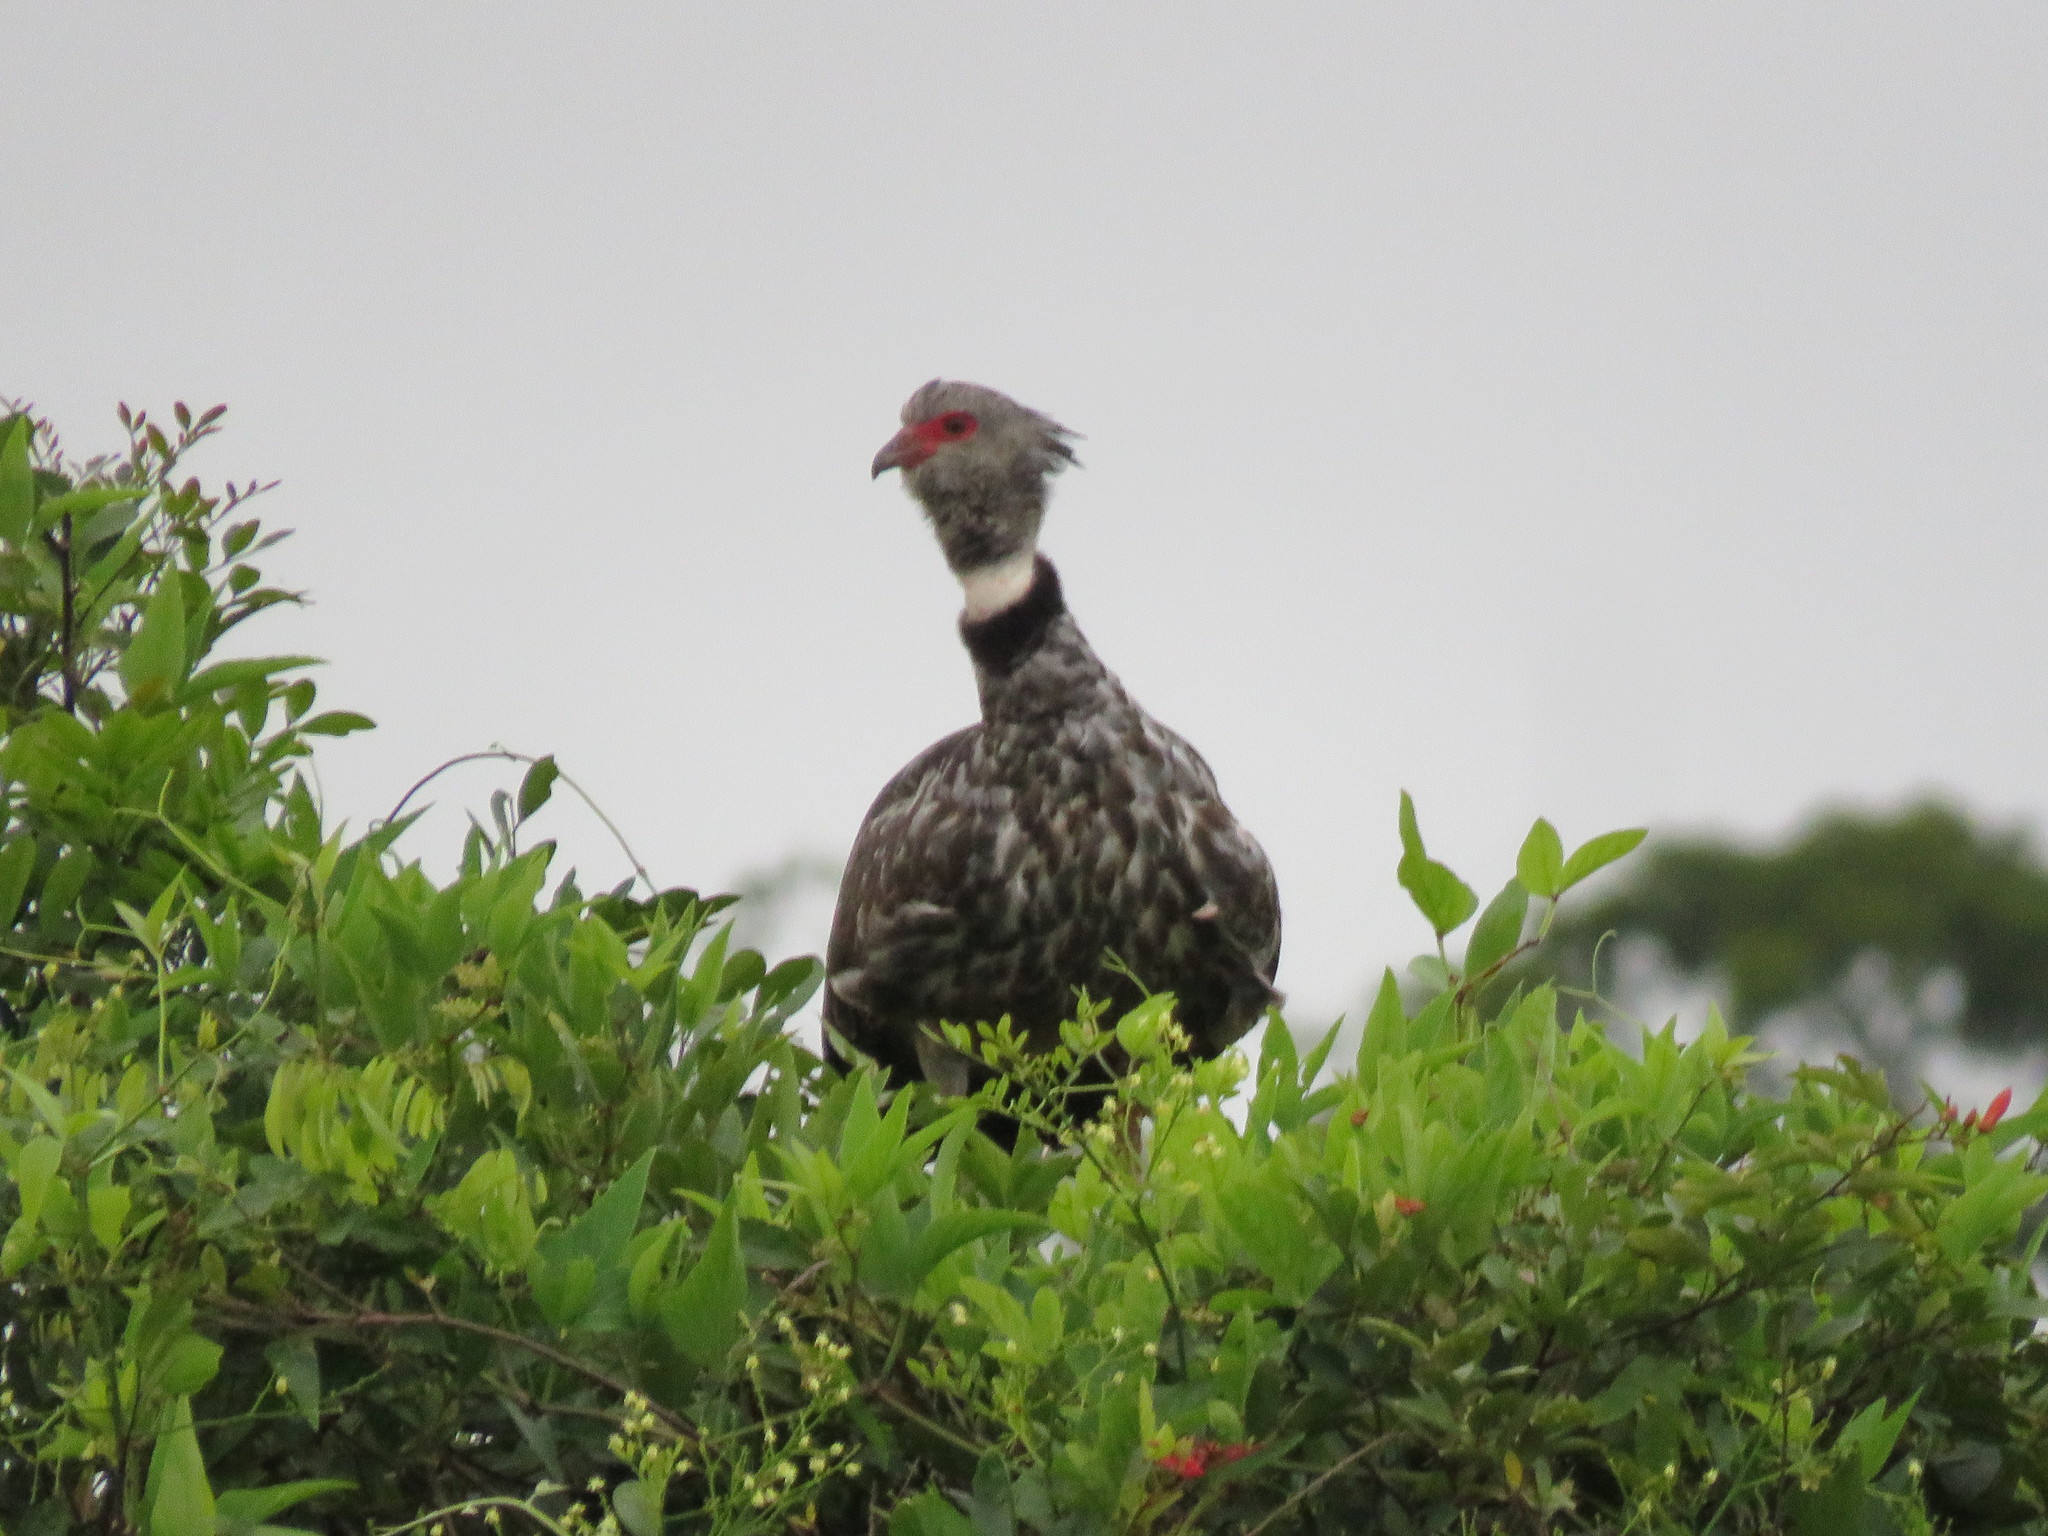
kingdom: Animalia
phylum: Chordata
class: Aves
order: Anseriformes
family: Anhimidae
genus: Chauna
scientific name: Chauna torquata
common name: Southern screamer
